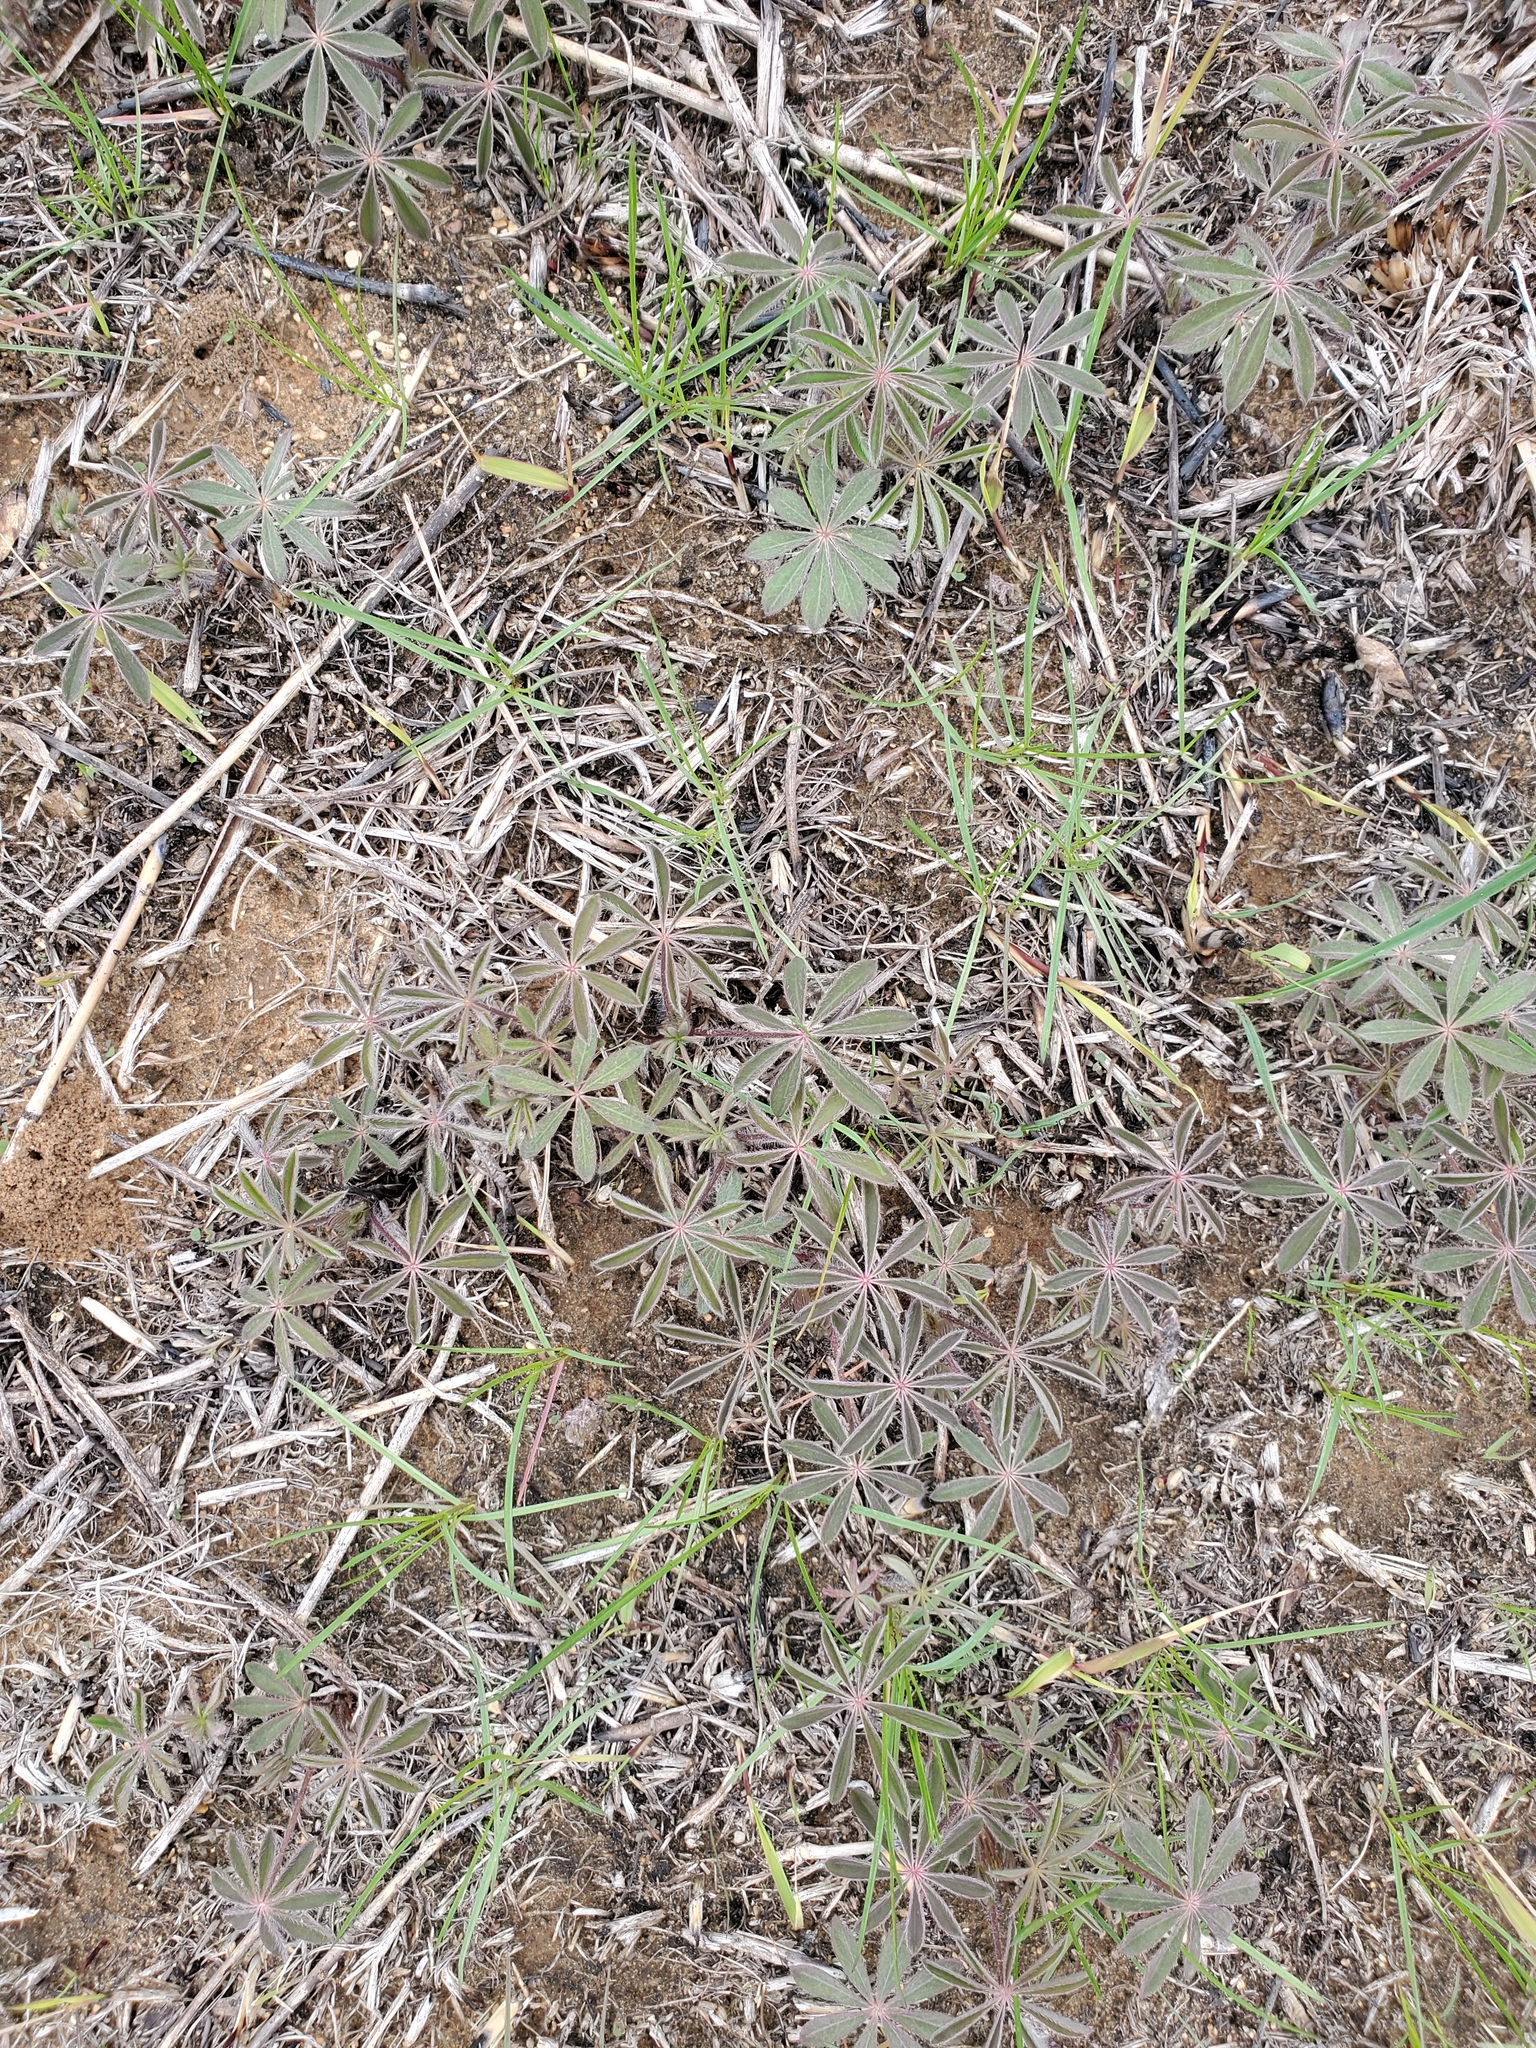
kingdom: Plantae
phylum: Tracheophyta
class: Magnoliopsida
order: Fabales
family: Fabaceae
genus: Lupinus
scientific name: Lupinus perennis
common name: Sundial lupine
